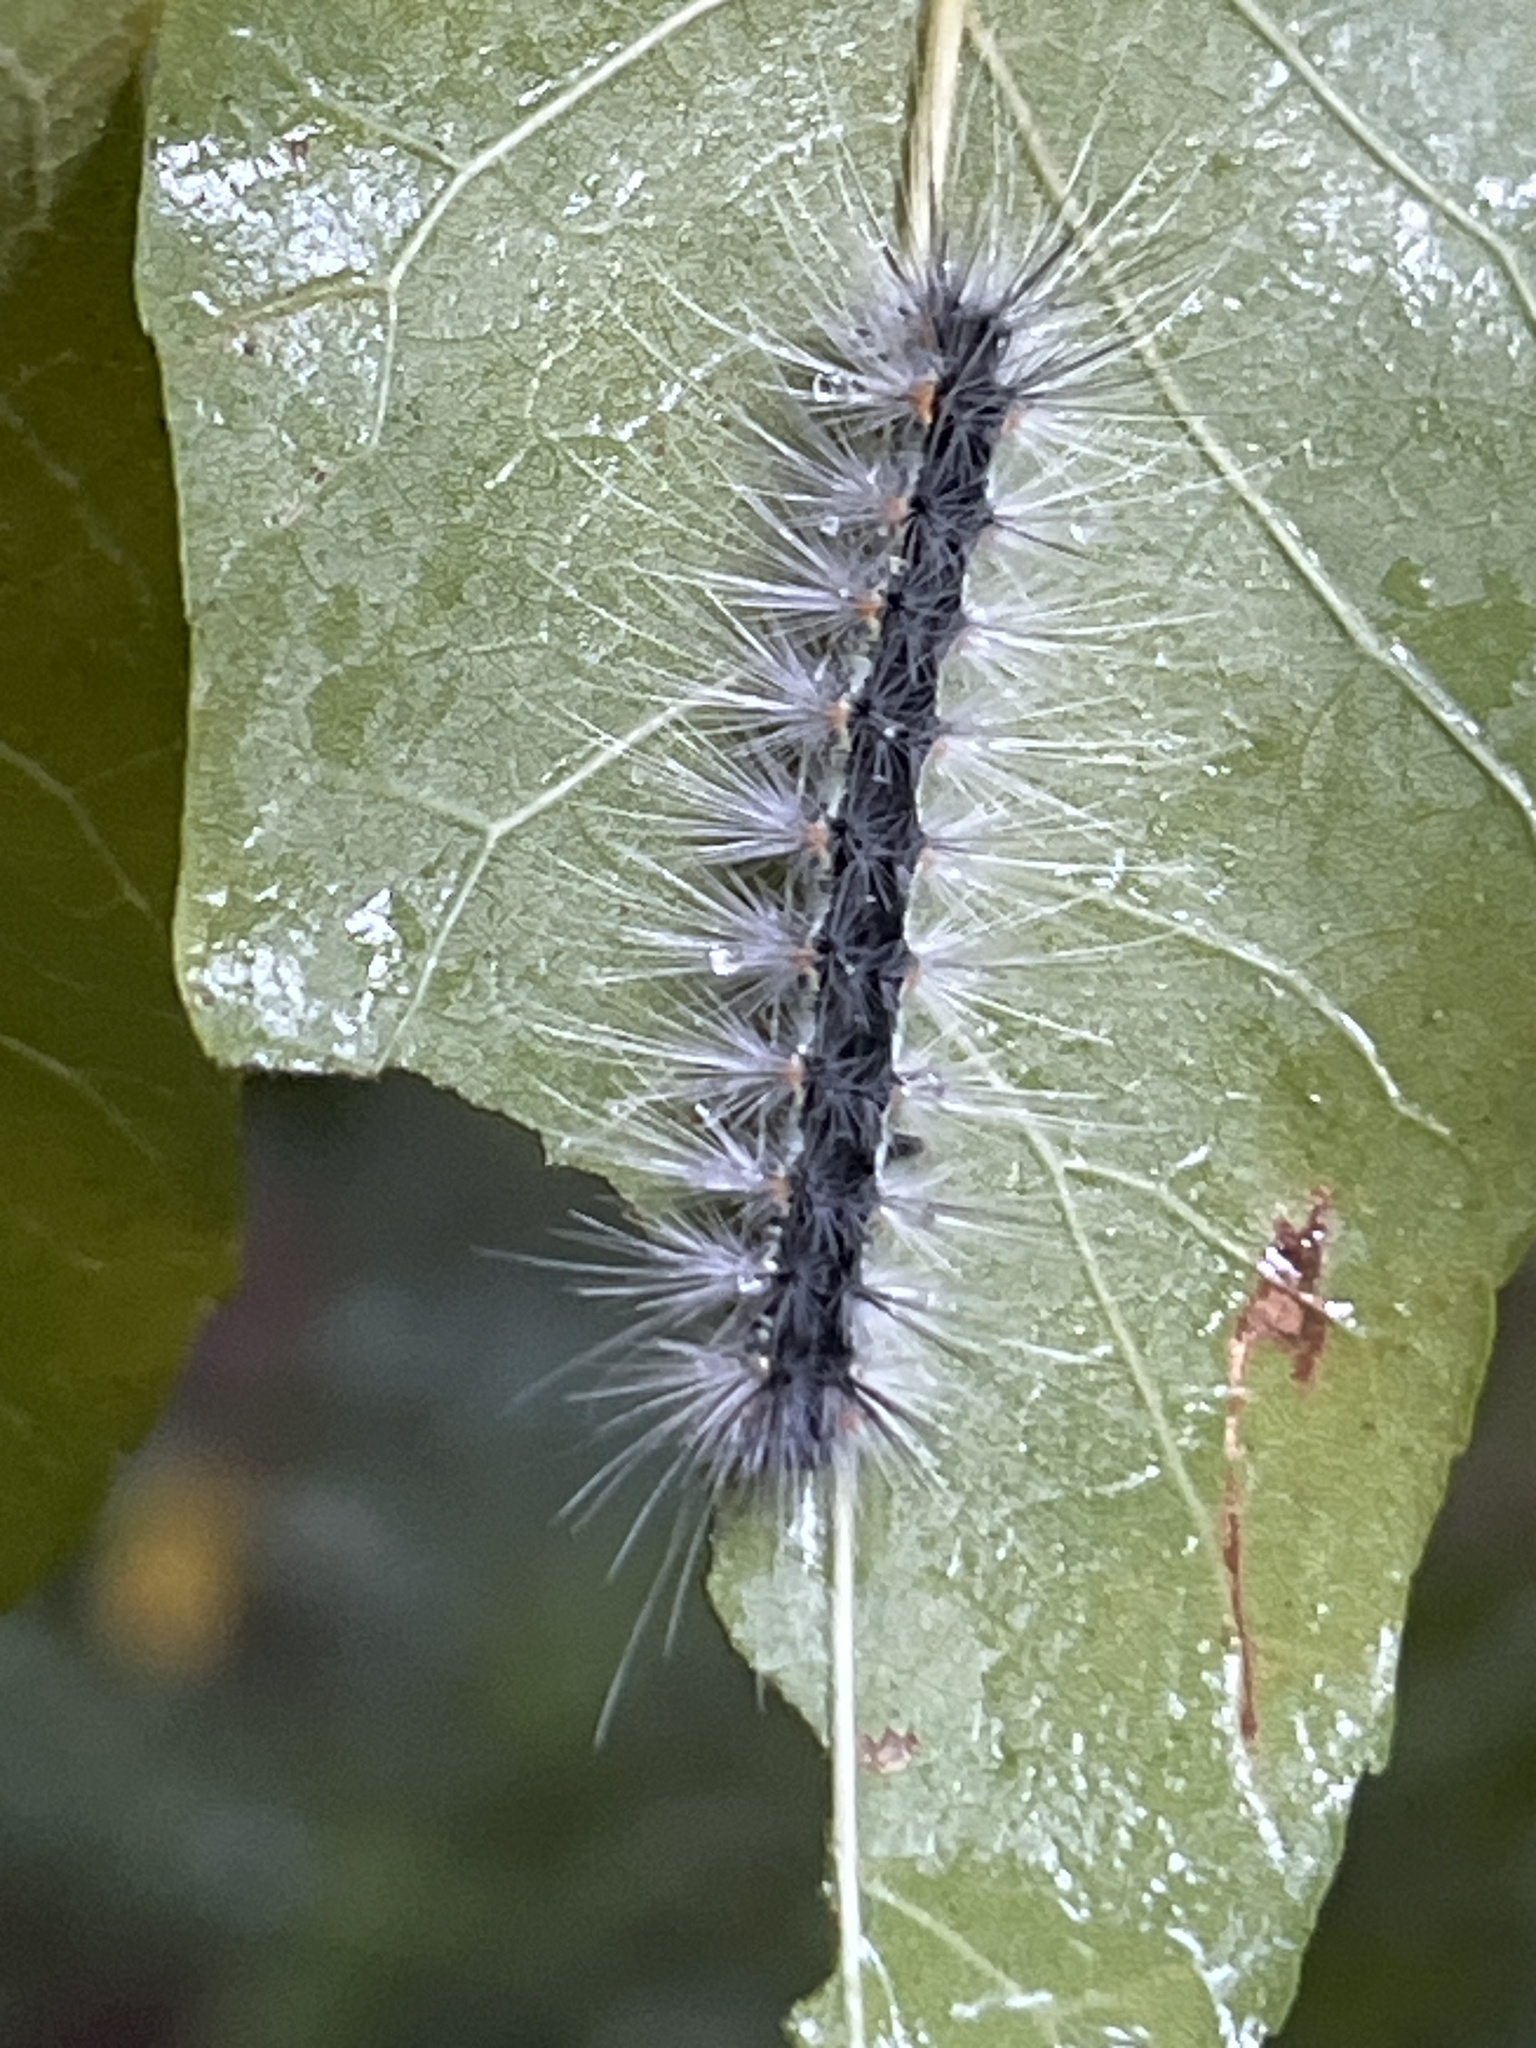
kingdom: Animalia
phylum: Arthropoda
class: Insecta
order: Lepidoptera
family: Erebidae
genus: Hyphantria
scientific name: Hyphantria cunea
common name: American white moth
